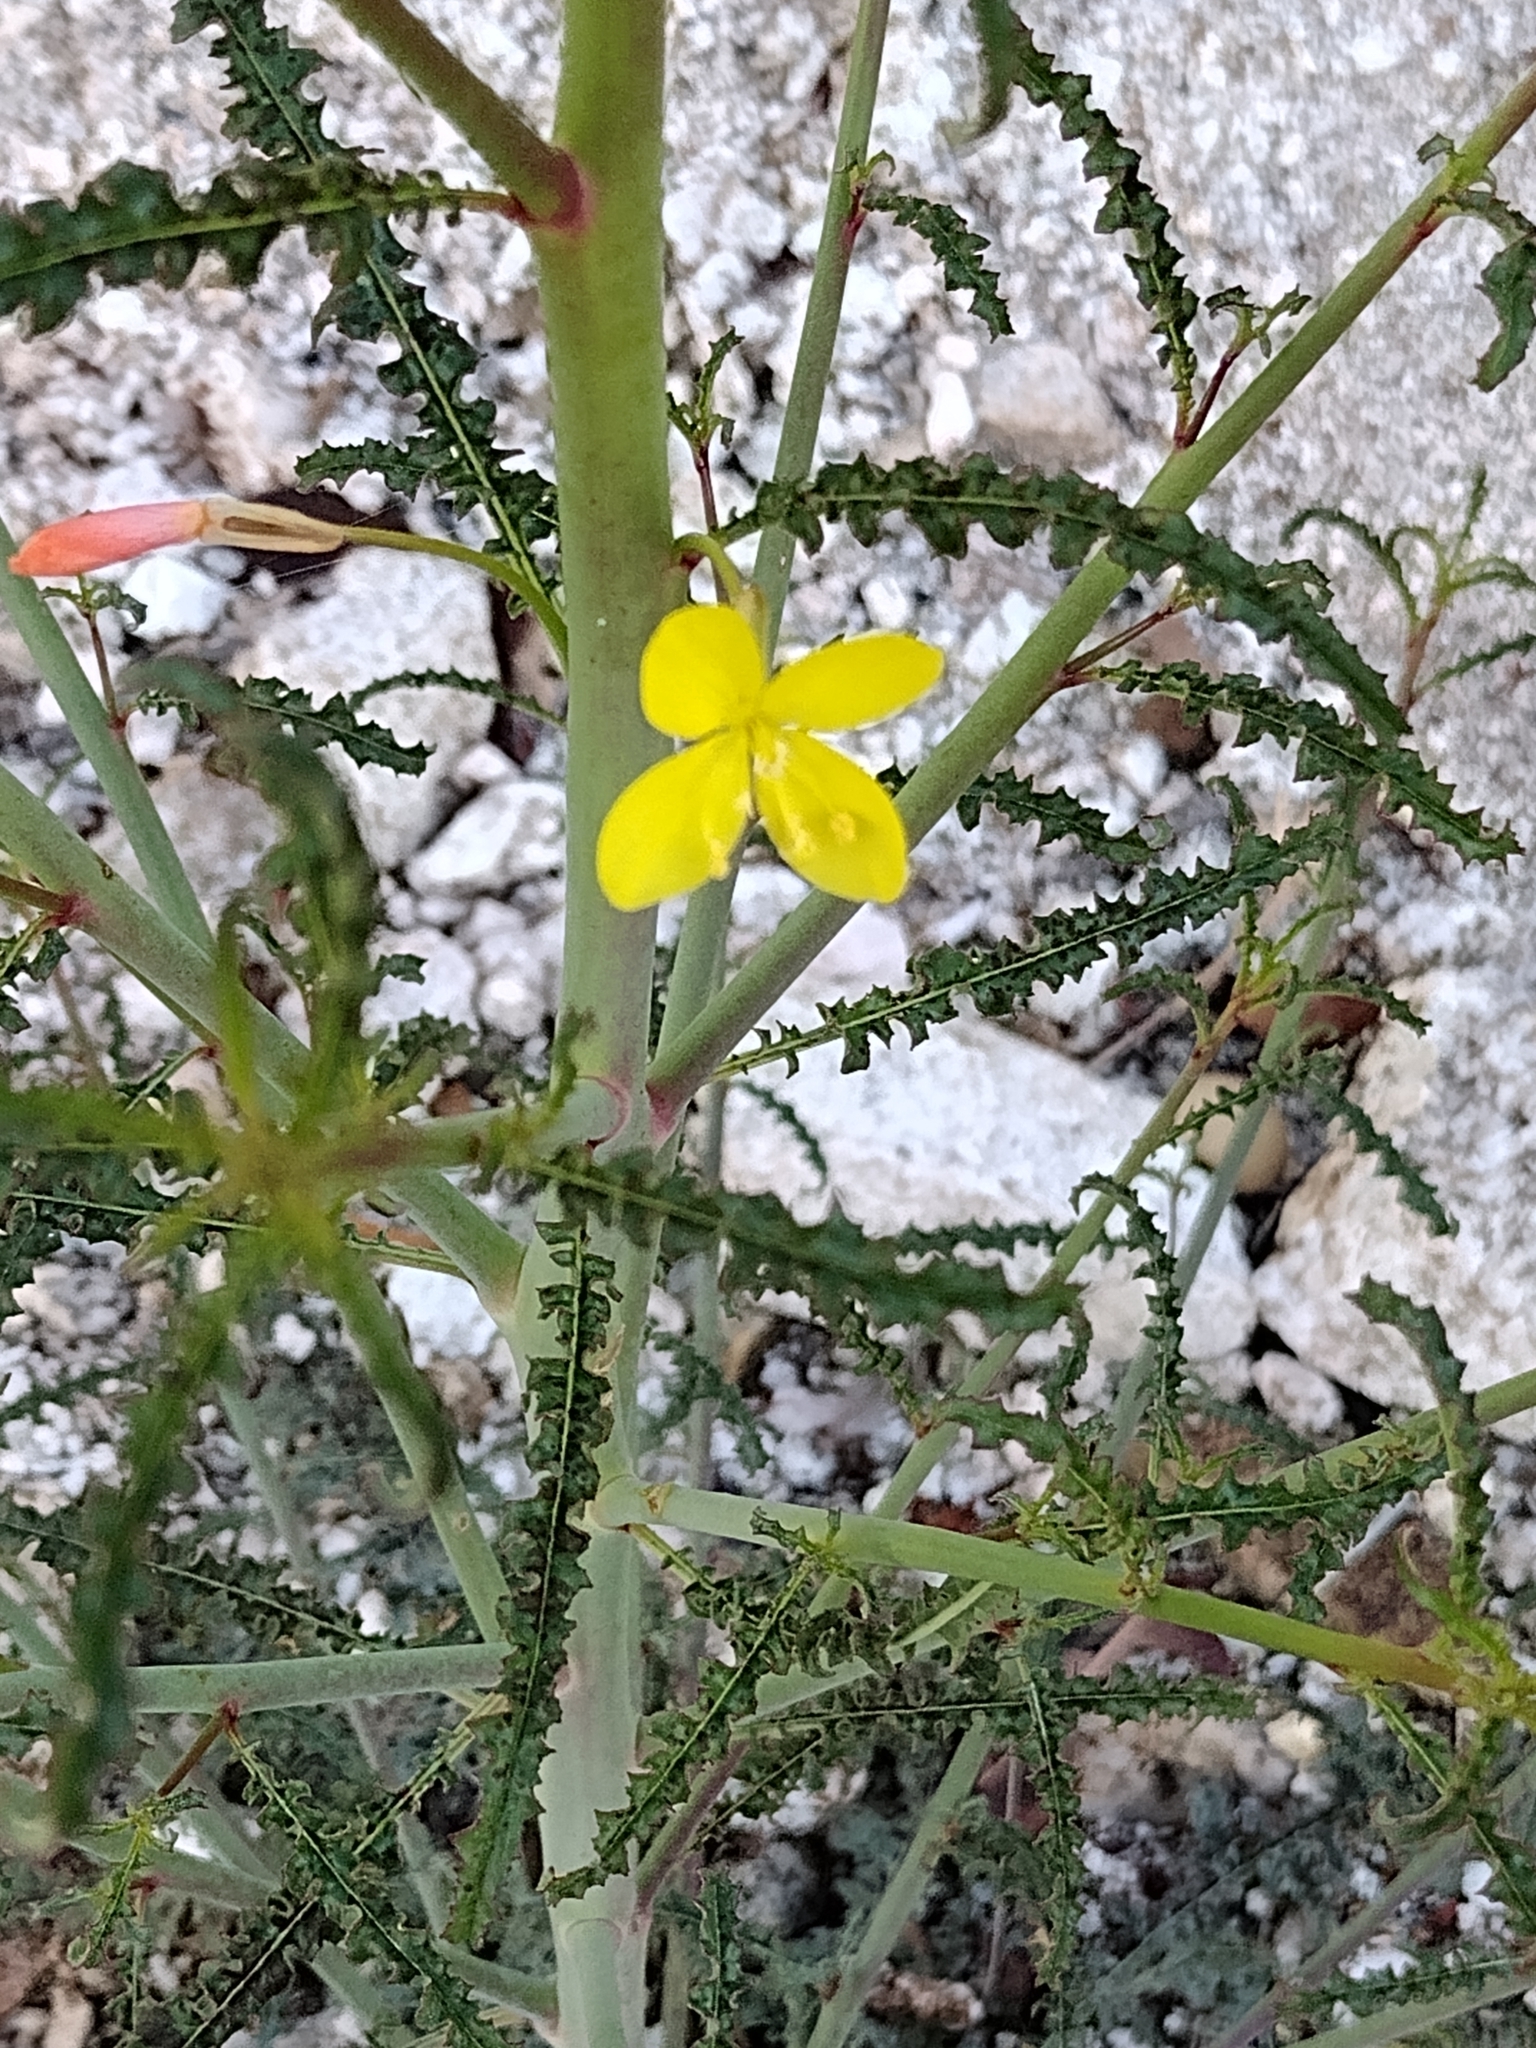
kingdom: Plantae
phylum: Tracheophyta
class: Magnoliopsida
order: Myrtales
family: Onagraceae
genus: Eulobus
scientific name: Eulobus californicus
